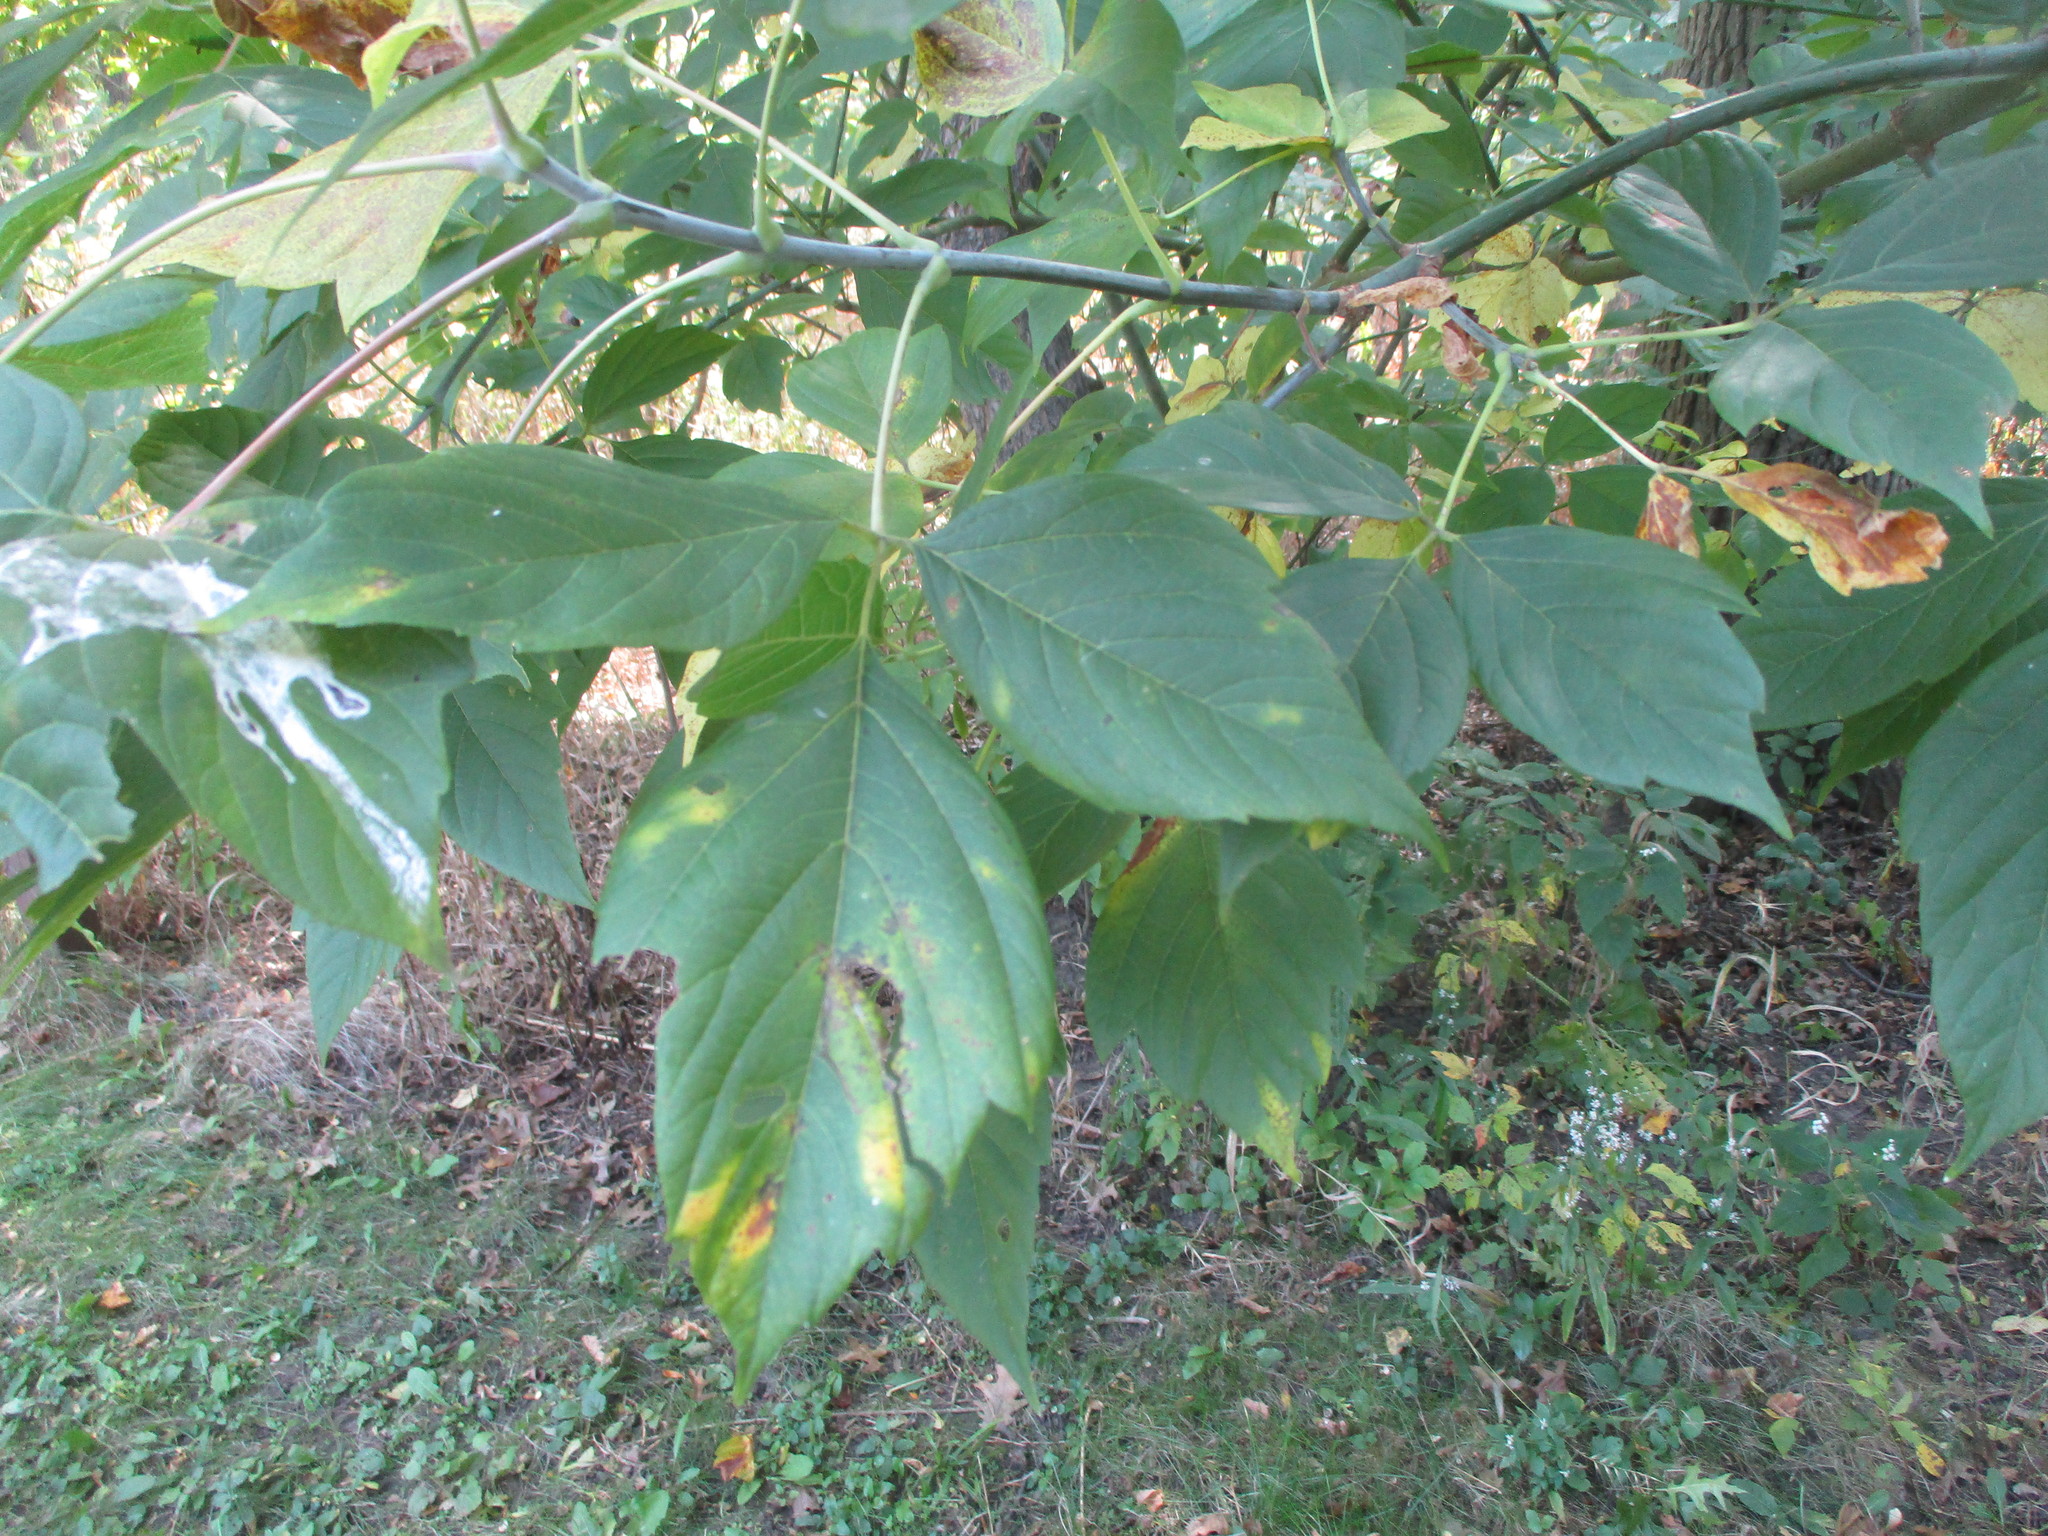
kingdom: Plantae
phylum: Tracheophyta
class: Magnoliopsida
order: Sapindales
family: Sapindaceae
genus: Acer
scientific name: Acer negundo
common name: Ashleaf maple
